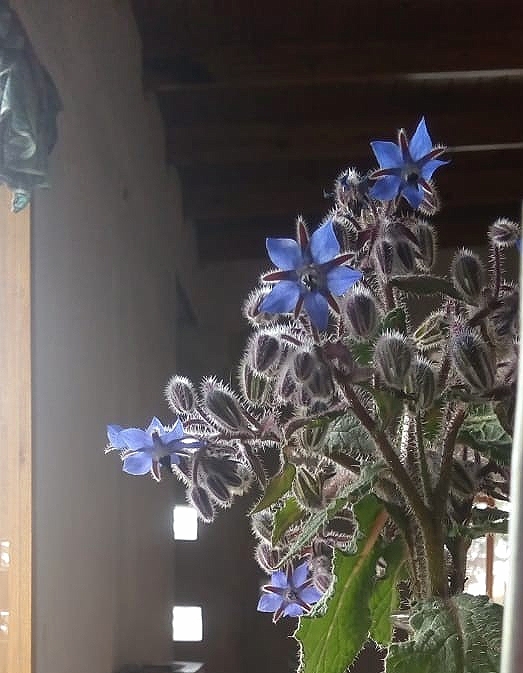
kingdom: Plantae
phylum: Tracheophyta
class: Magnoliopsida
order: Boraginales
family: Boraginaceae
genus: Borago
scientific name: Borago officinalis
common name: Borage
